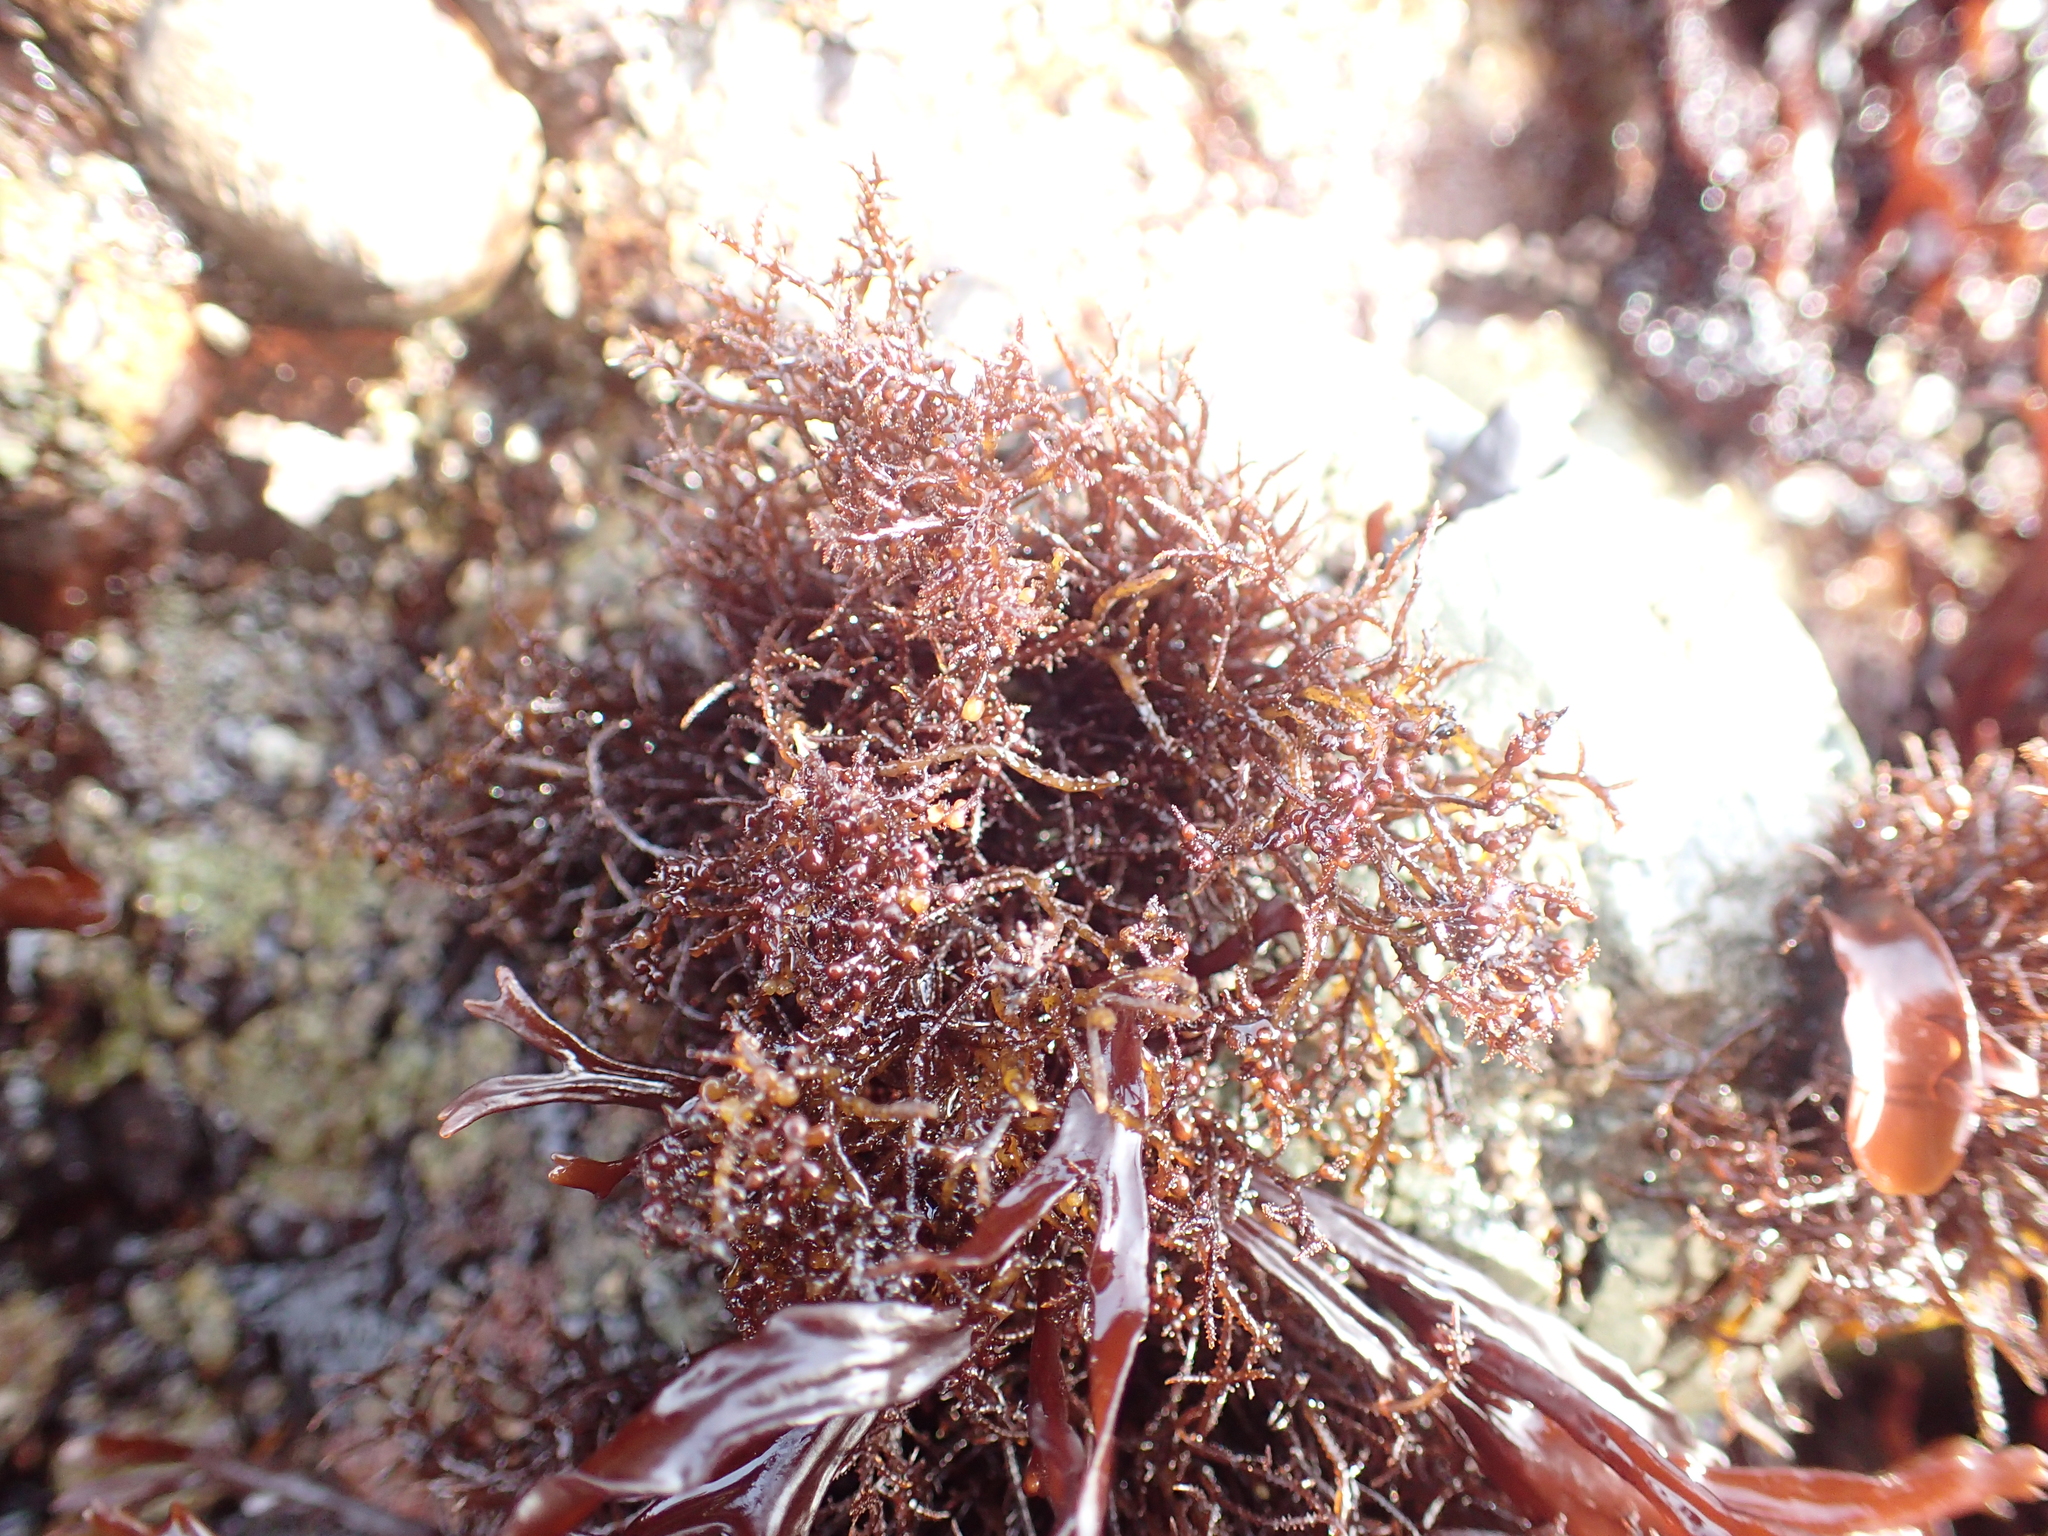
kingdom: Plantae
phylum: Rhodophyta
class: Florideophyceae
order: Gigartinales
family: Endocladiaceae
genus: Endocladia
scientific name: Endocladia muricata
